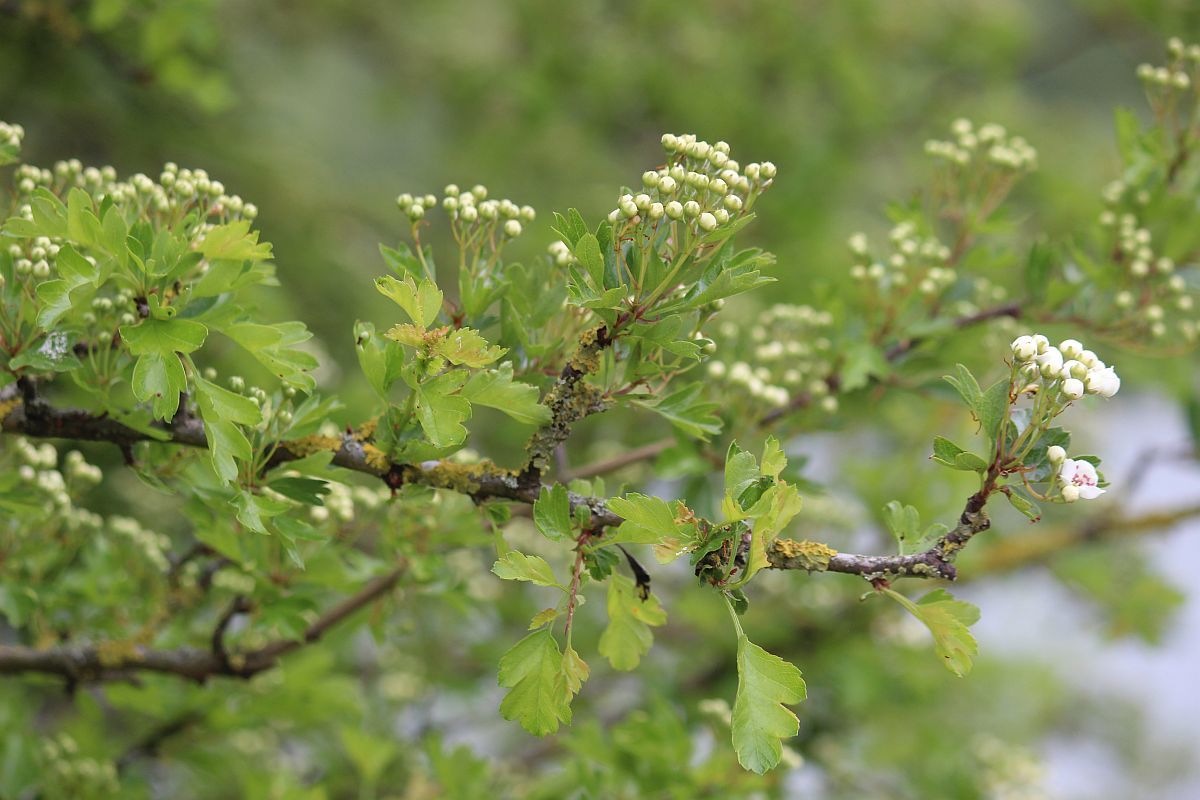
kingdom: Plantae
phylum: Tracheophyta
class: Magnoliopsida
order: Rosales
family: Rosaceae
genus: Crataegus
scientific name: Crataegus monogyna
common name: Hawthorn
